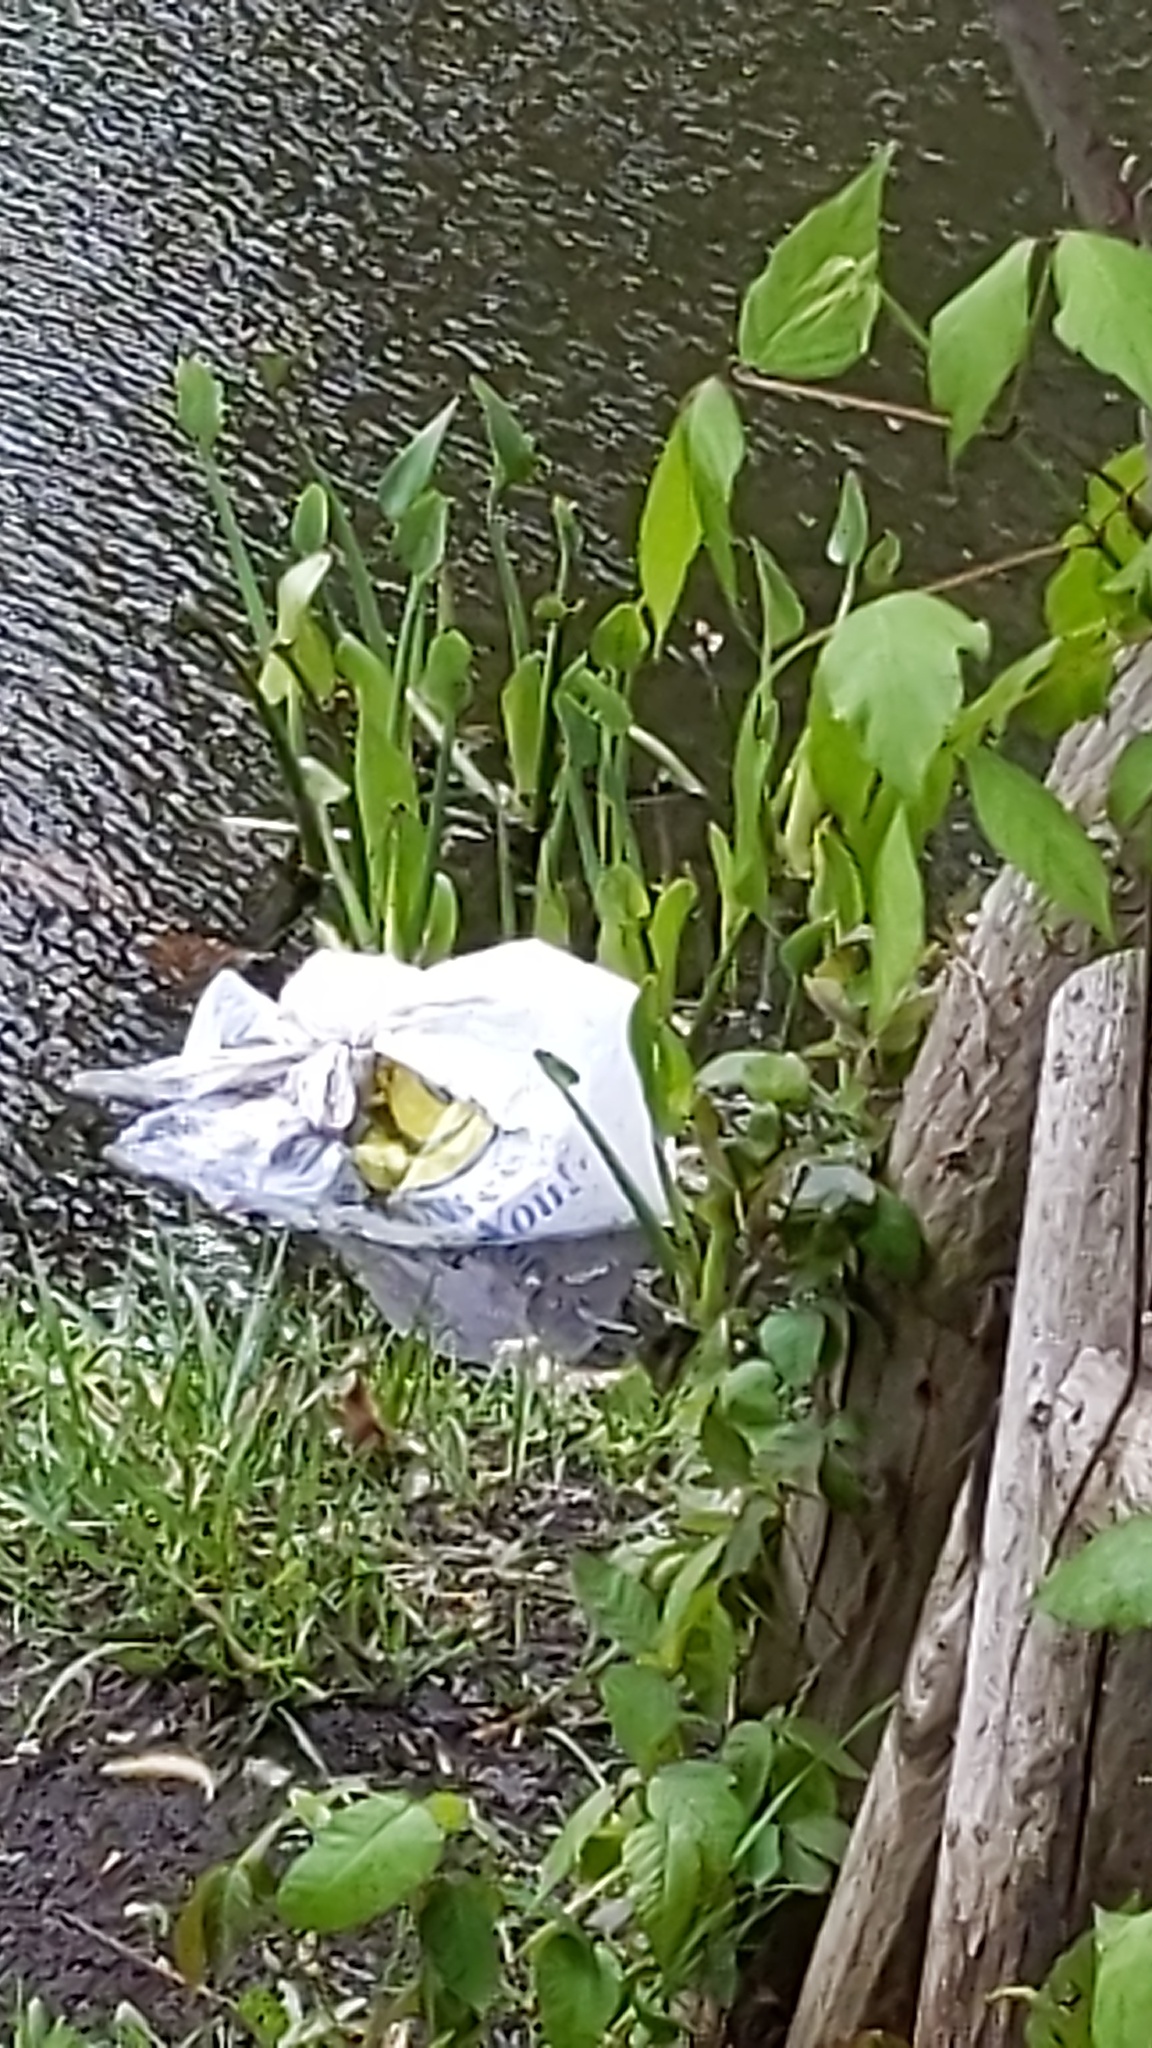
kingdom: Plantae
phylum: Tracheophyta
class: Liliopsida
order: Commelinales
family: Pontederiaceae
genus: Pontederia
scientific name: Pontederia cordata
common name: Pickerelweed
